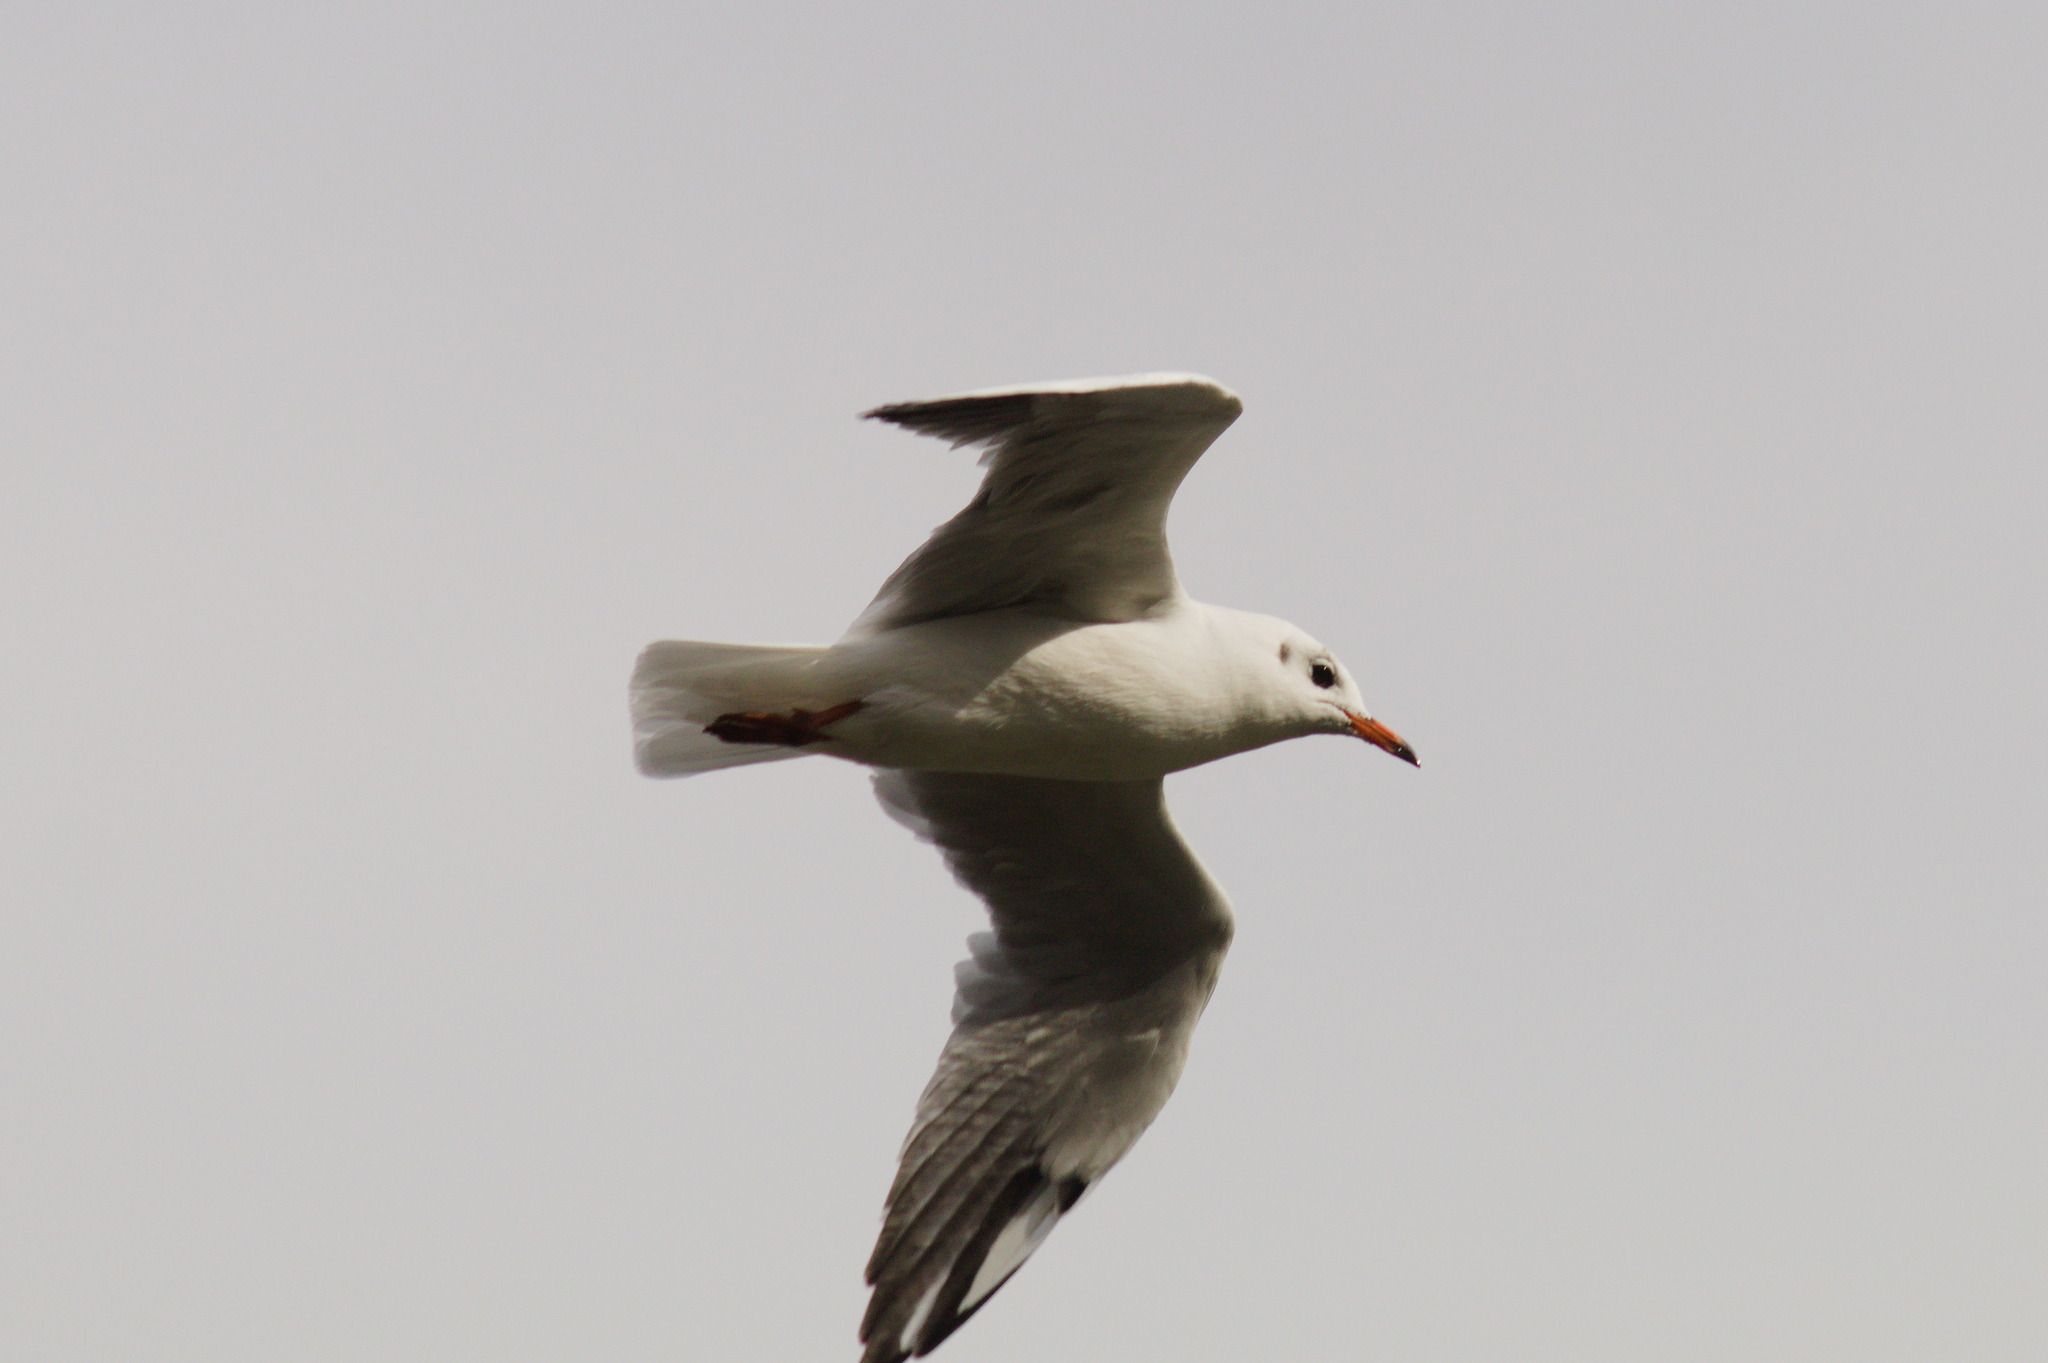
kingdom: Animalia
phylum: Chordata
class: Aves
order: Charadriiformes
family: Laridae
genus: Chroicocephalus
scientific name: Chroicocephalus ridibundus
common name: Black-headed gull
